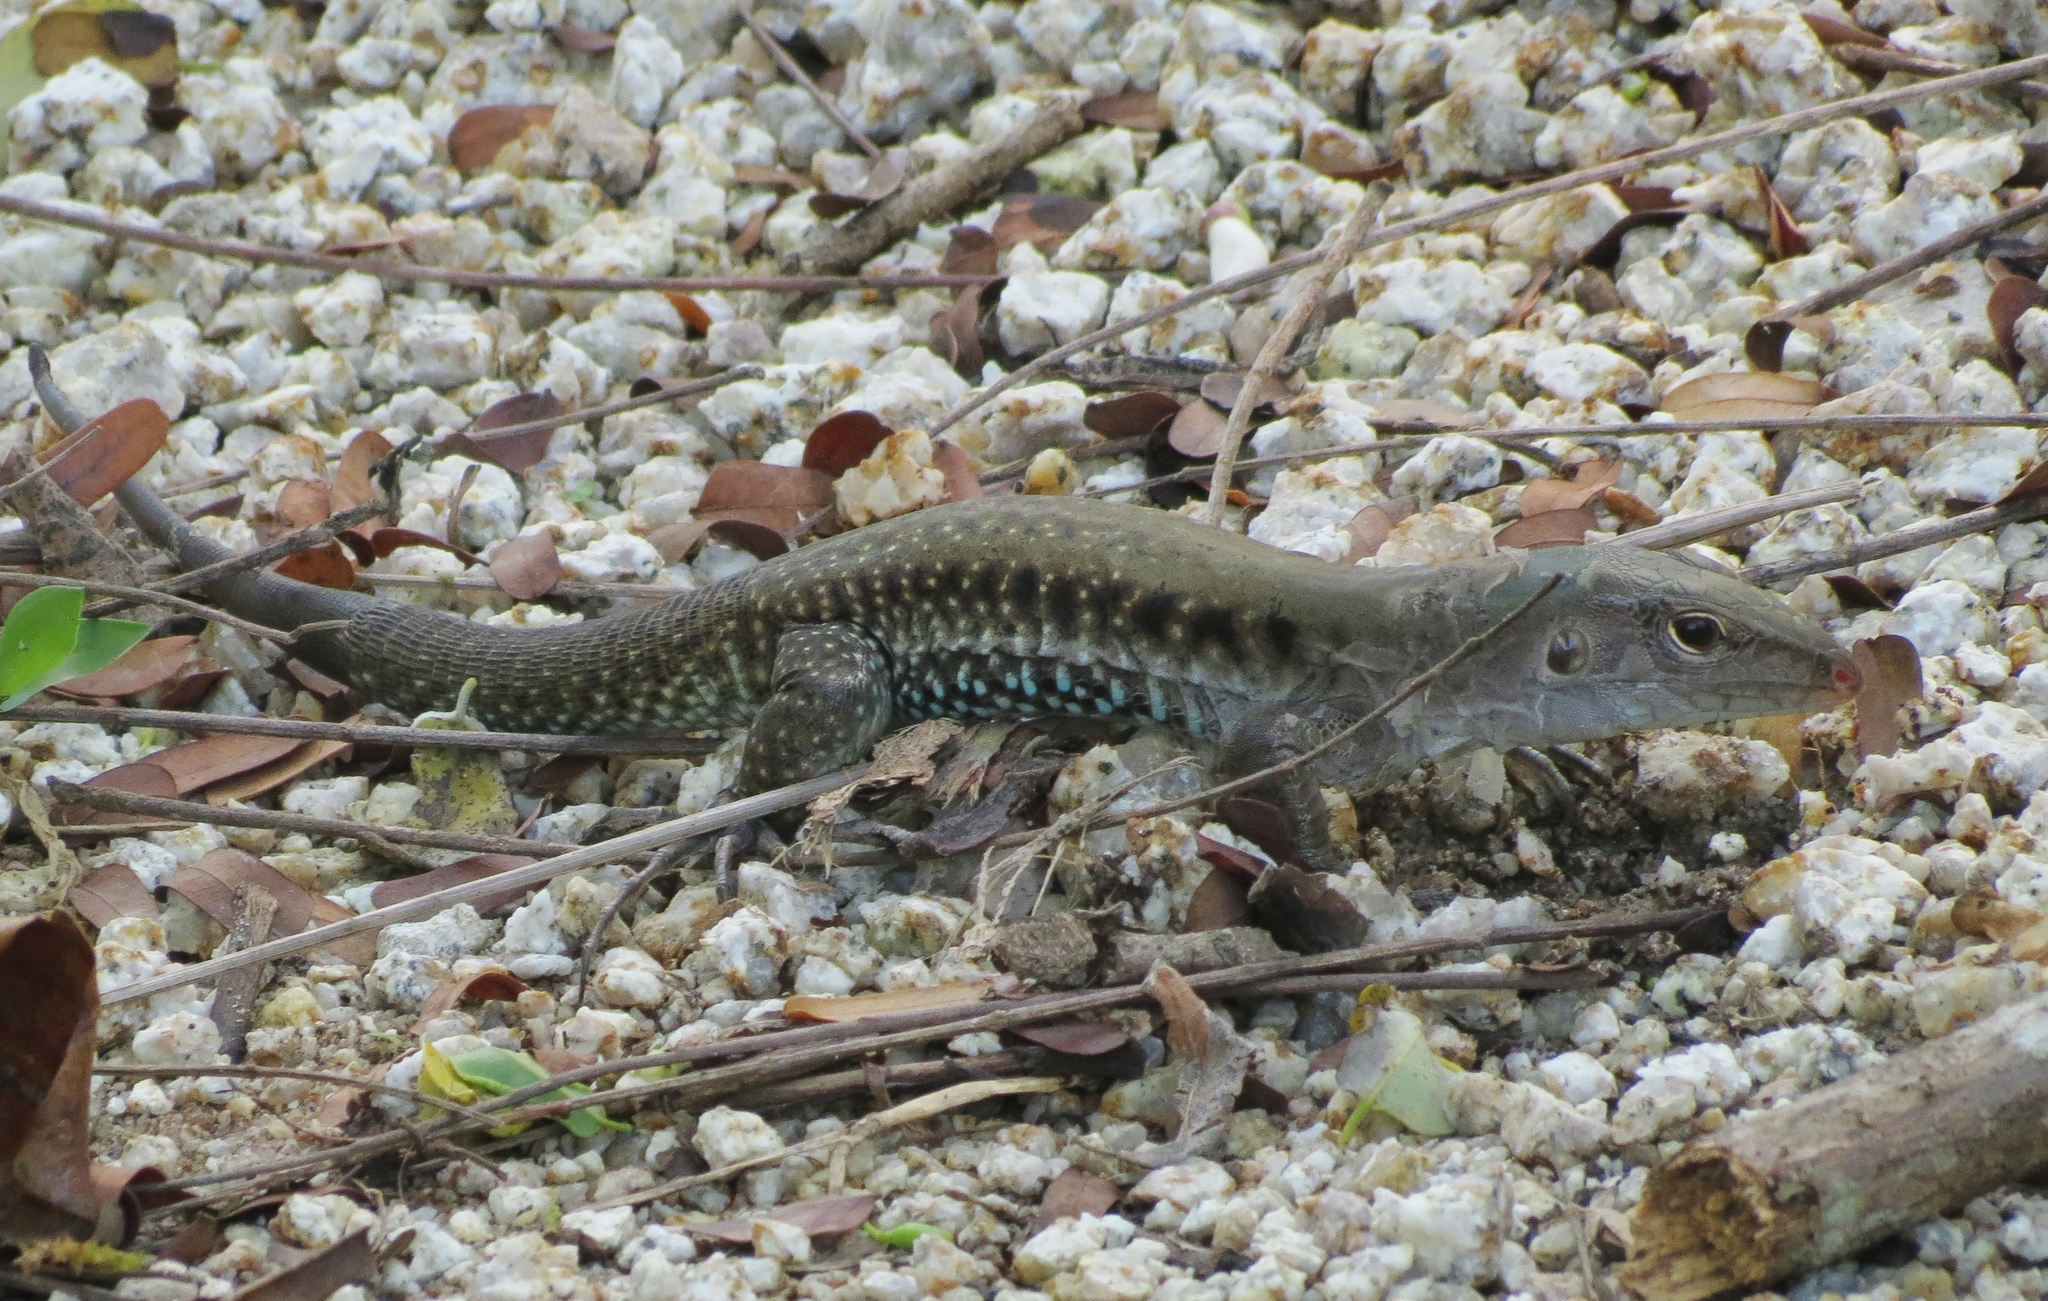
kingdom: Animalia
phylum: Chordata
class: Squamata
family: Teiidae
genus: Pholidoscelis
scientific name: Pholidoscelis exsul
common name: Common puerto rican ameiva
